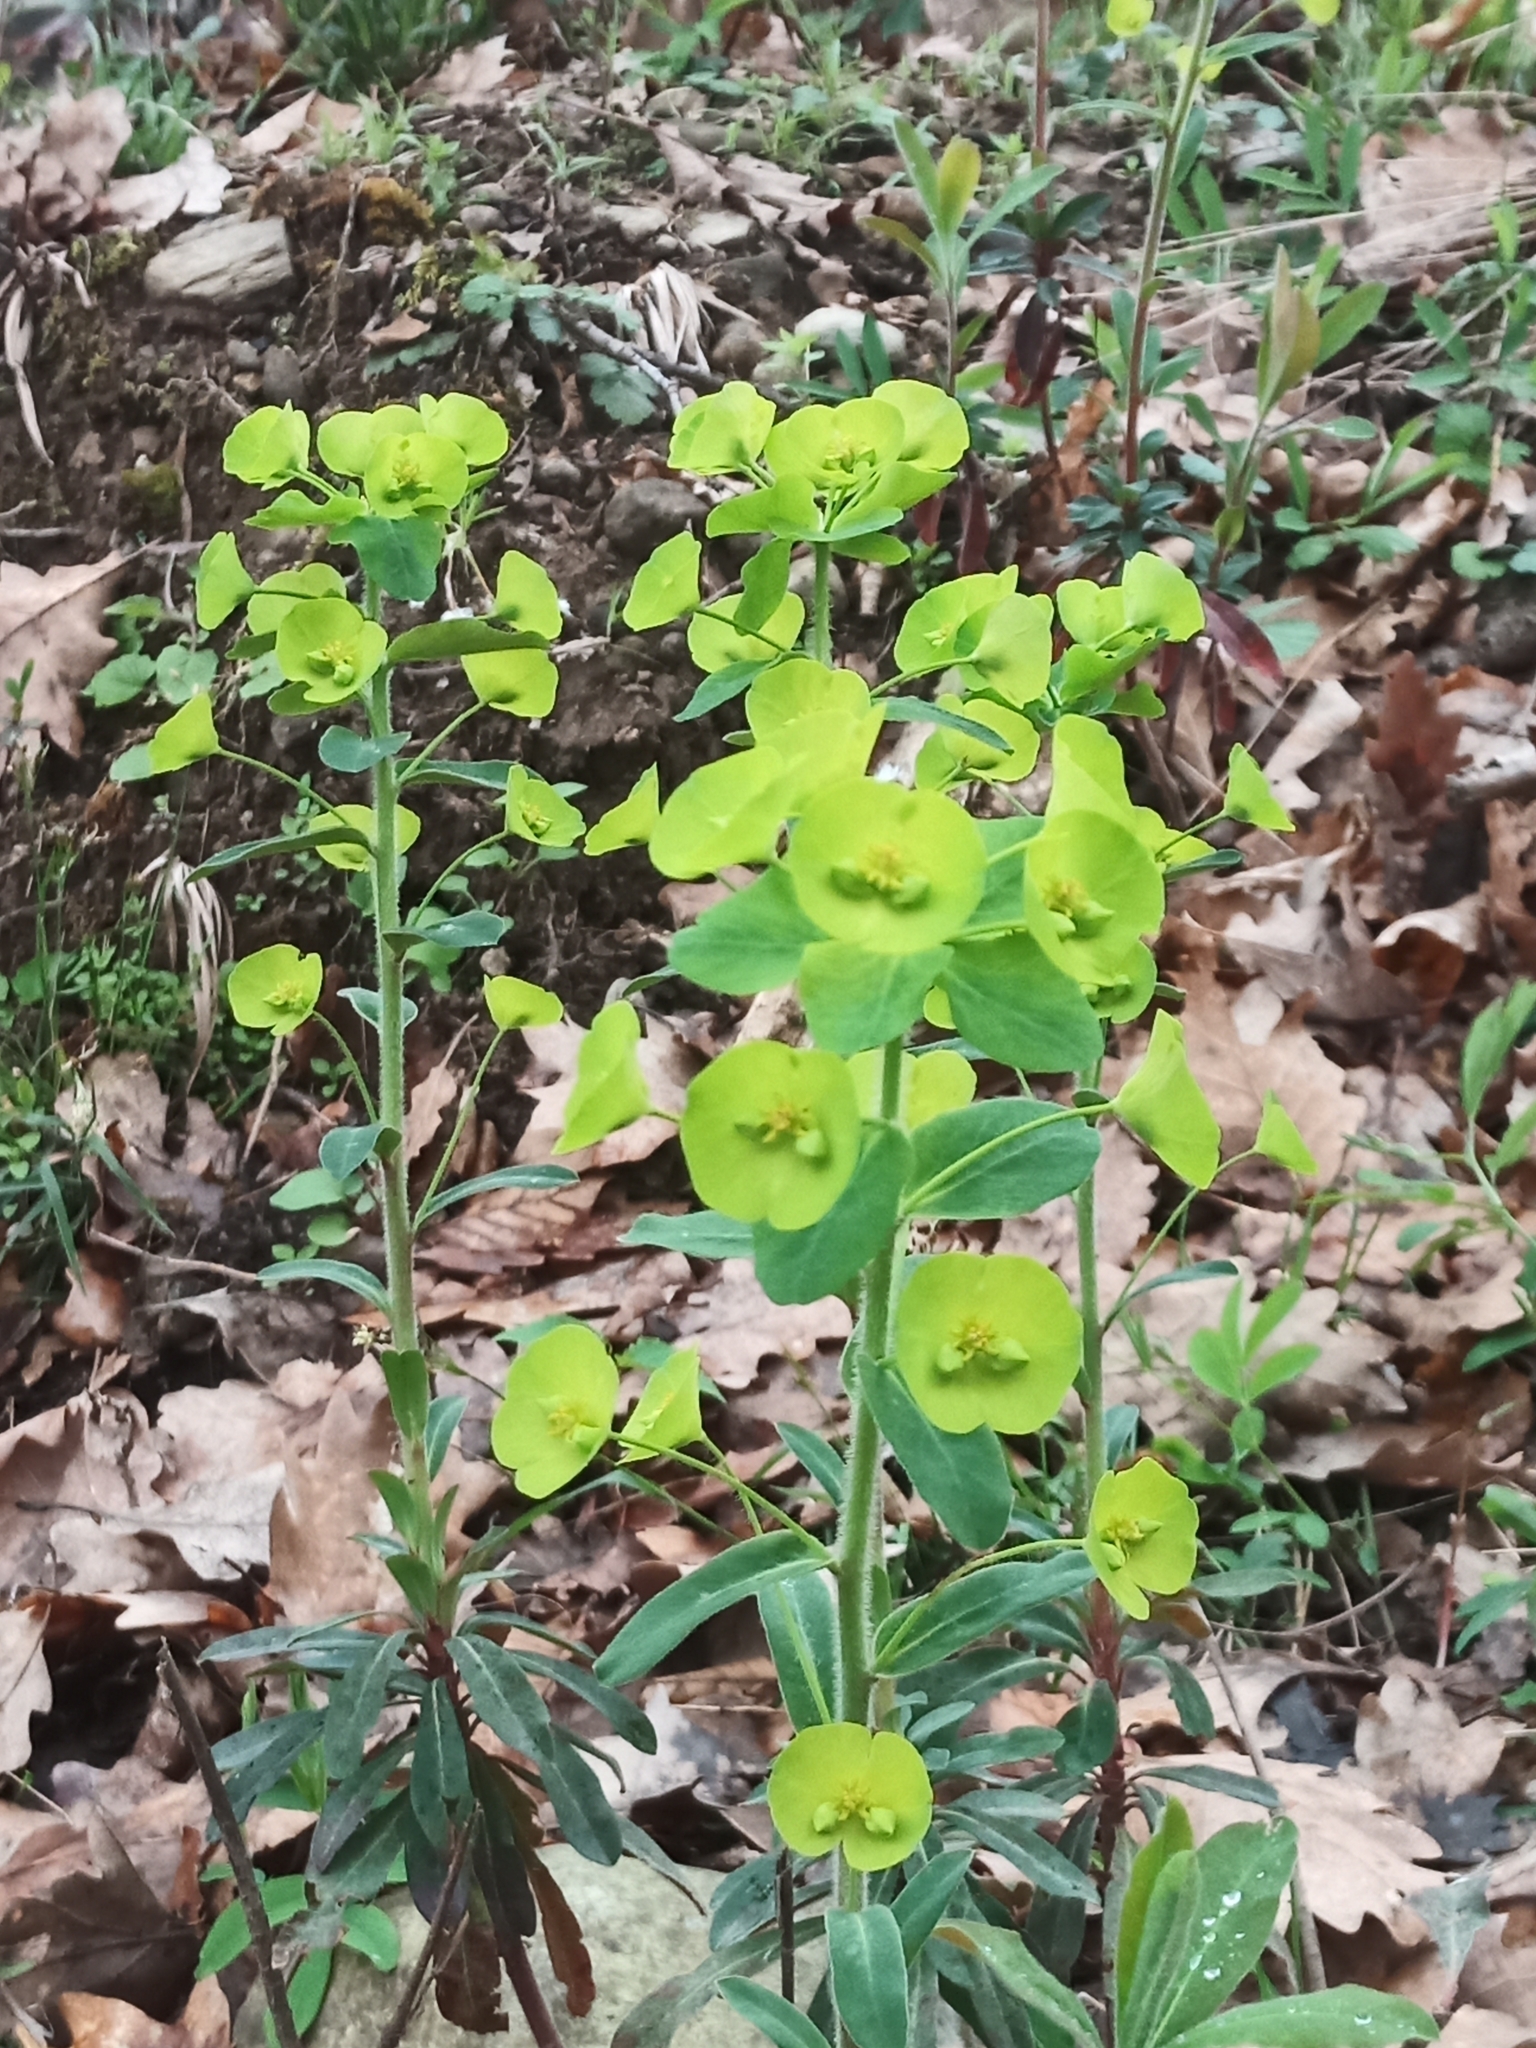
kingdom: Plantae
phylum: Tracheophyta
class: Magnoliopsida
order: Malpighiales
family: Euphorbiaceae
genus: Euphorbia
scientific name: Euphorbia amygdaloides
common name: Wood spurge
